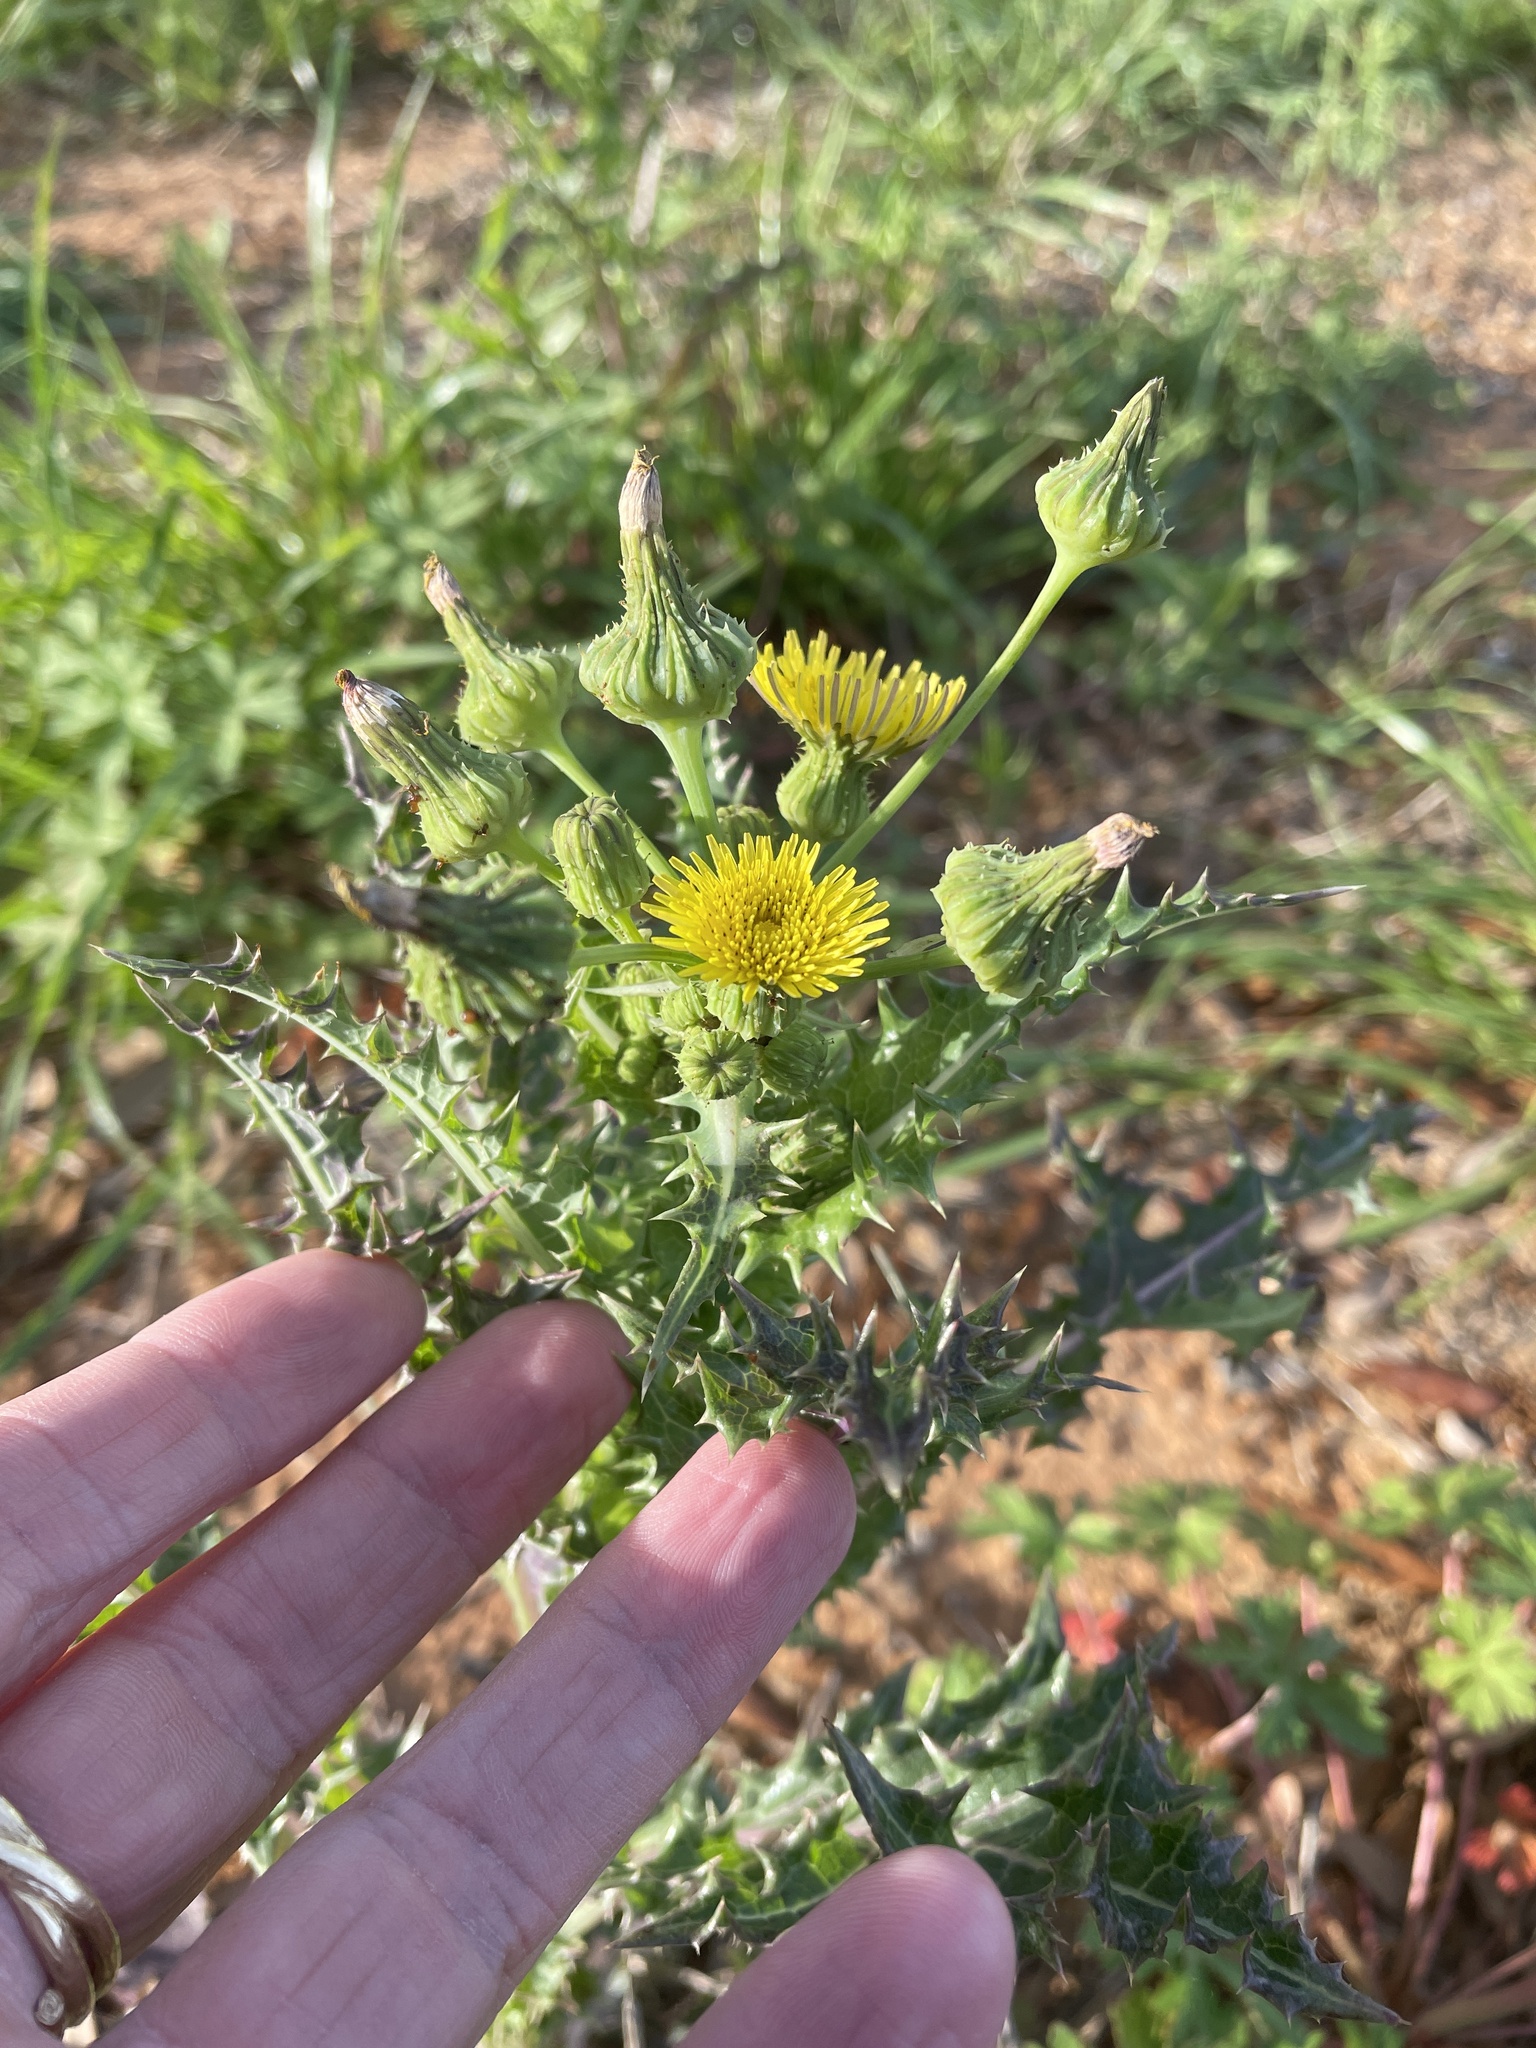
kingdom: Plantae
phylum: Tracheophyta
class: Magnoliopsida
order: Asterales
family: Asteraceae
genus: Sonchus
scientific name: Sonchus asper
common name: Prickly sow-thistle
